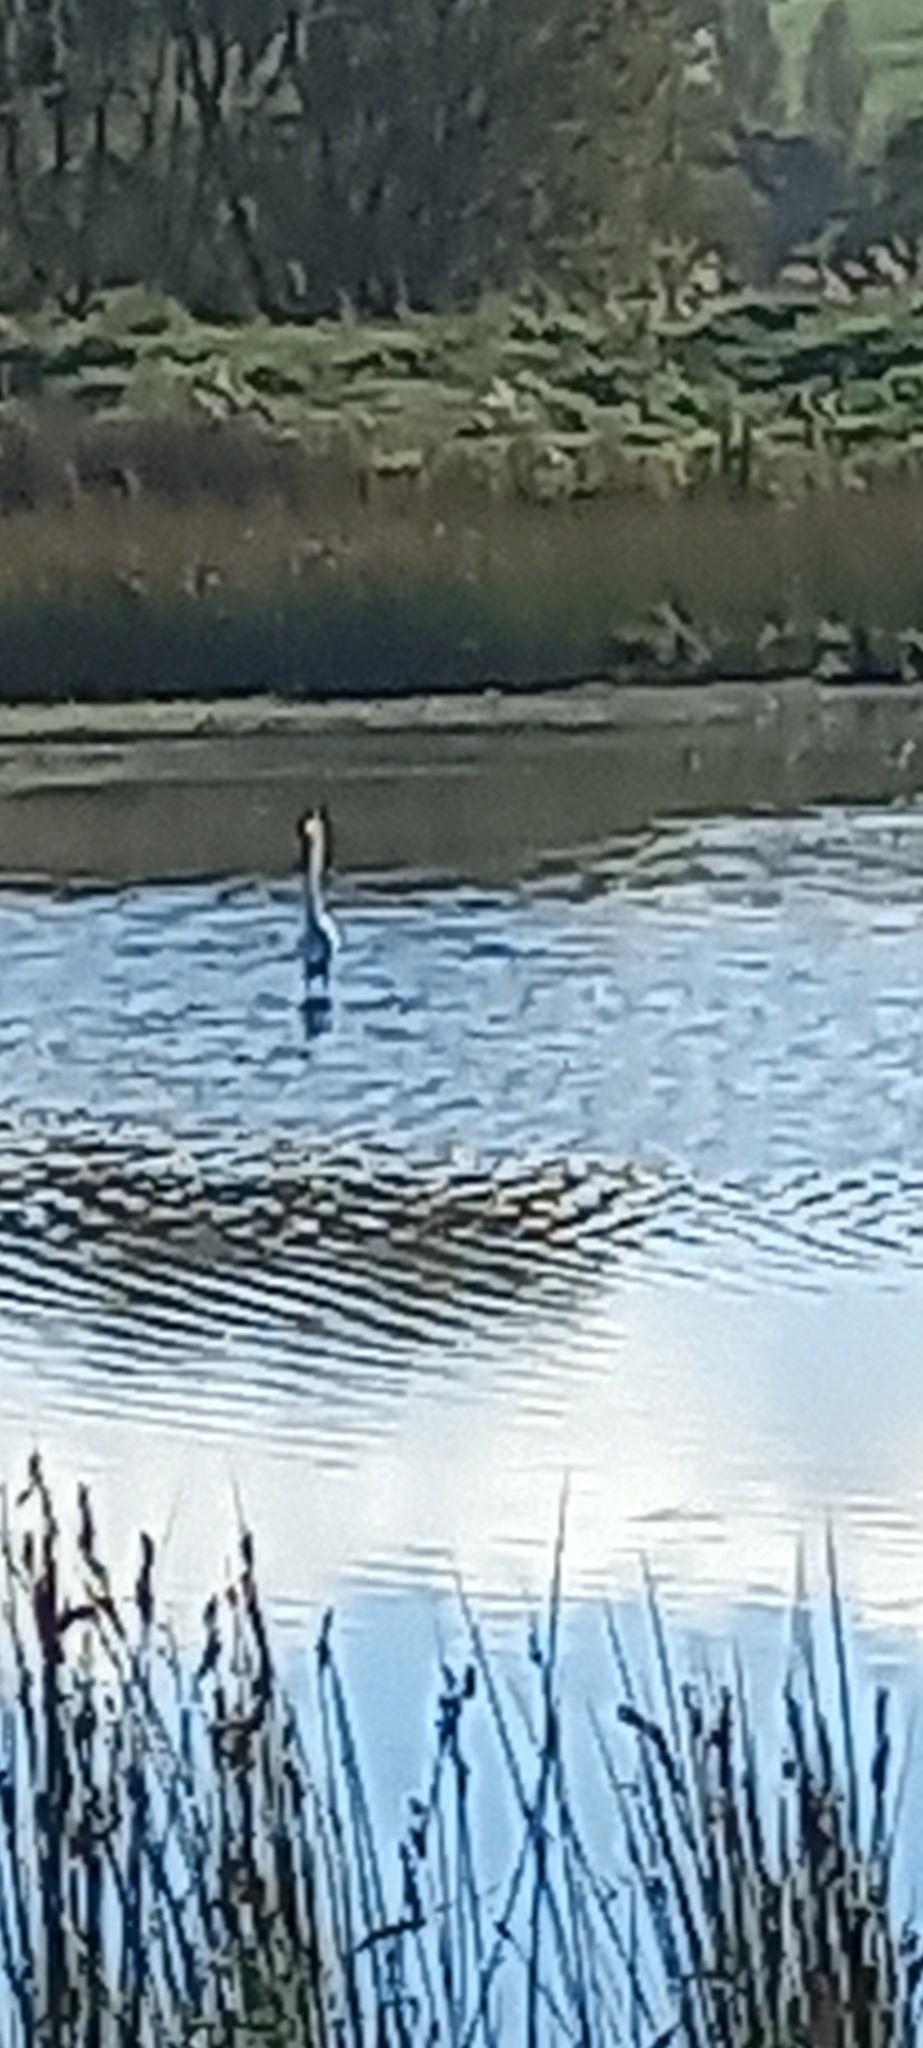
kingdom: Animalia
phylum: Chordata
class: Aves
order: Pelecaniformes
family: Ardeidae
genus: Ardea
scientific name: Ardea modesta
